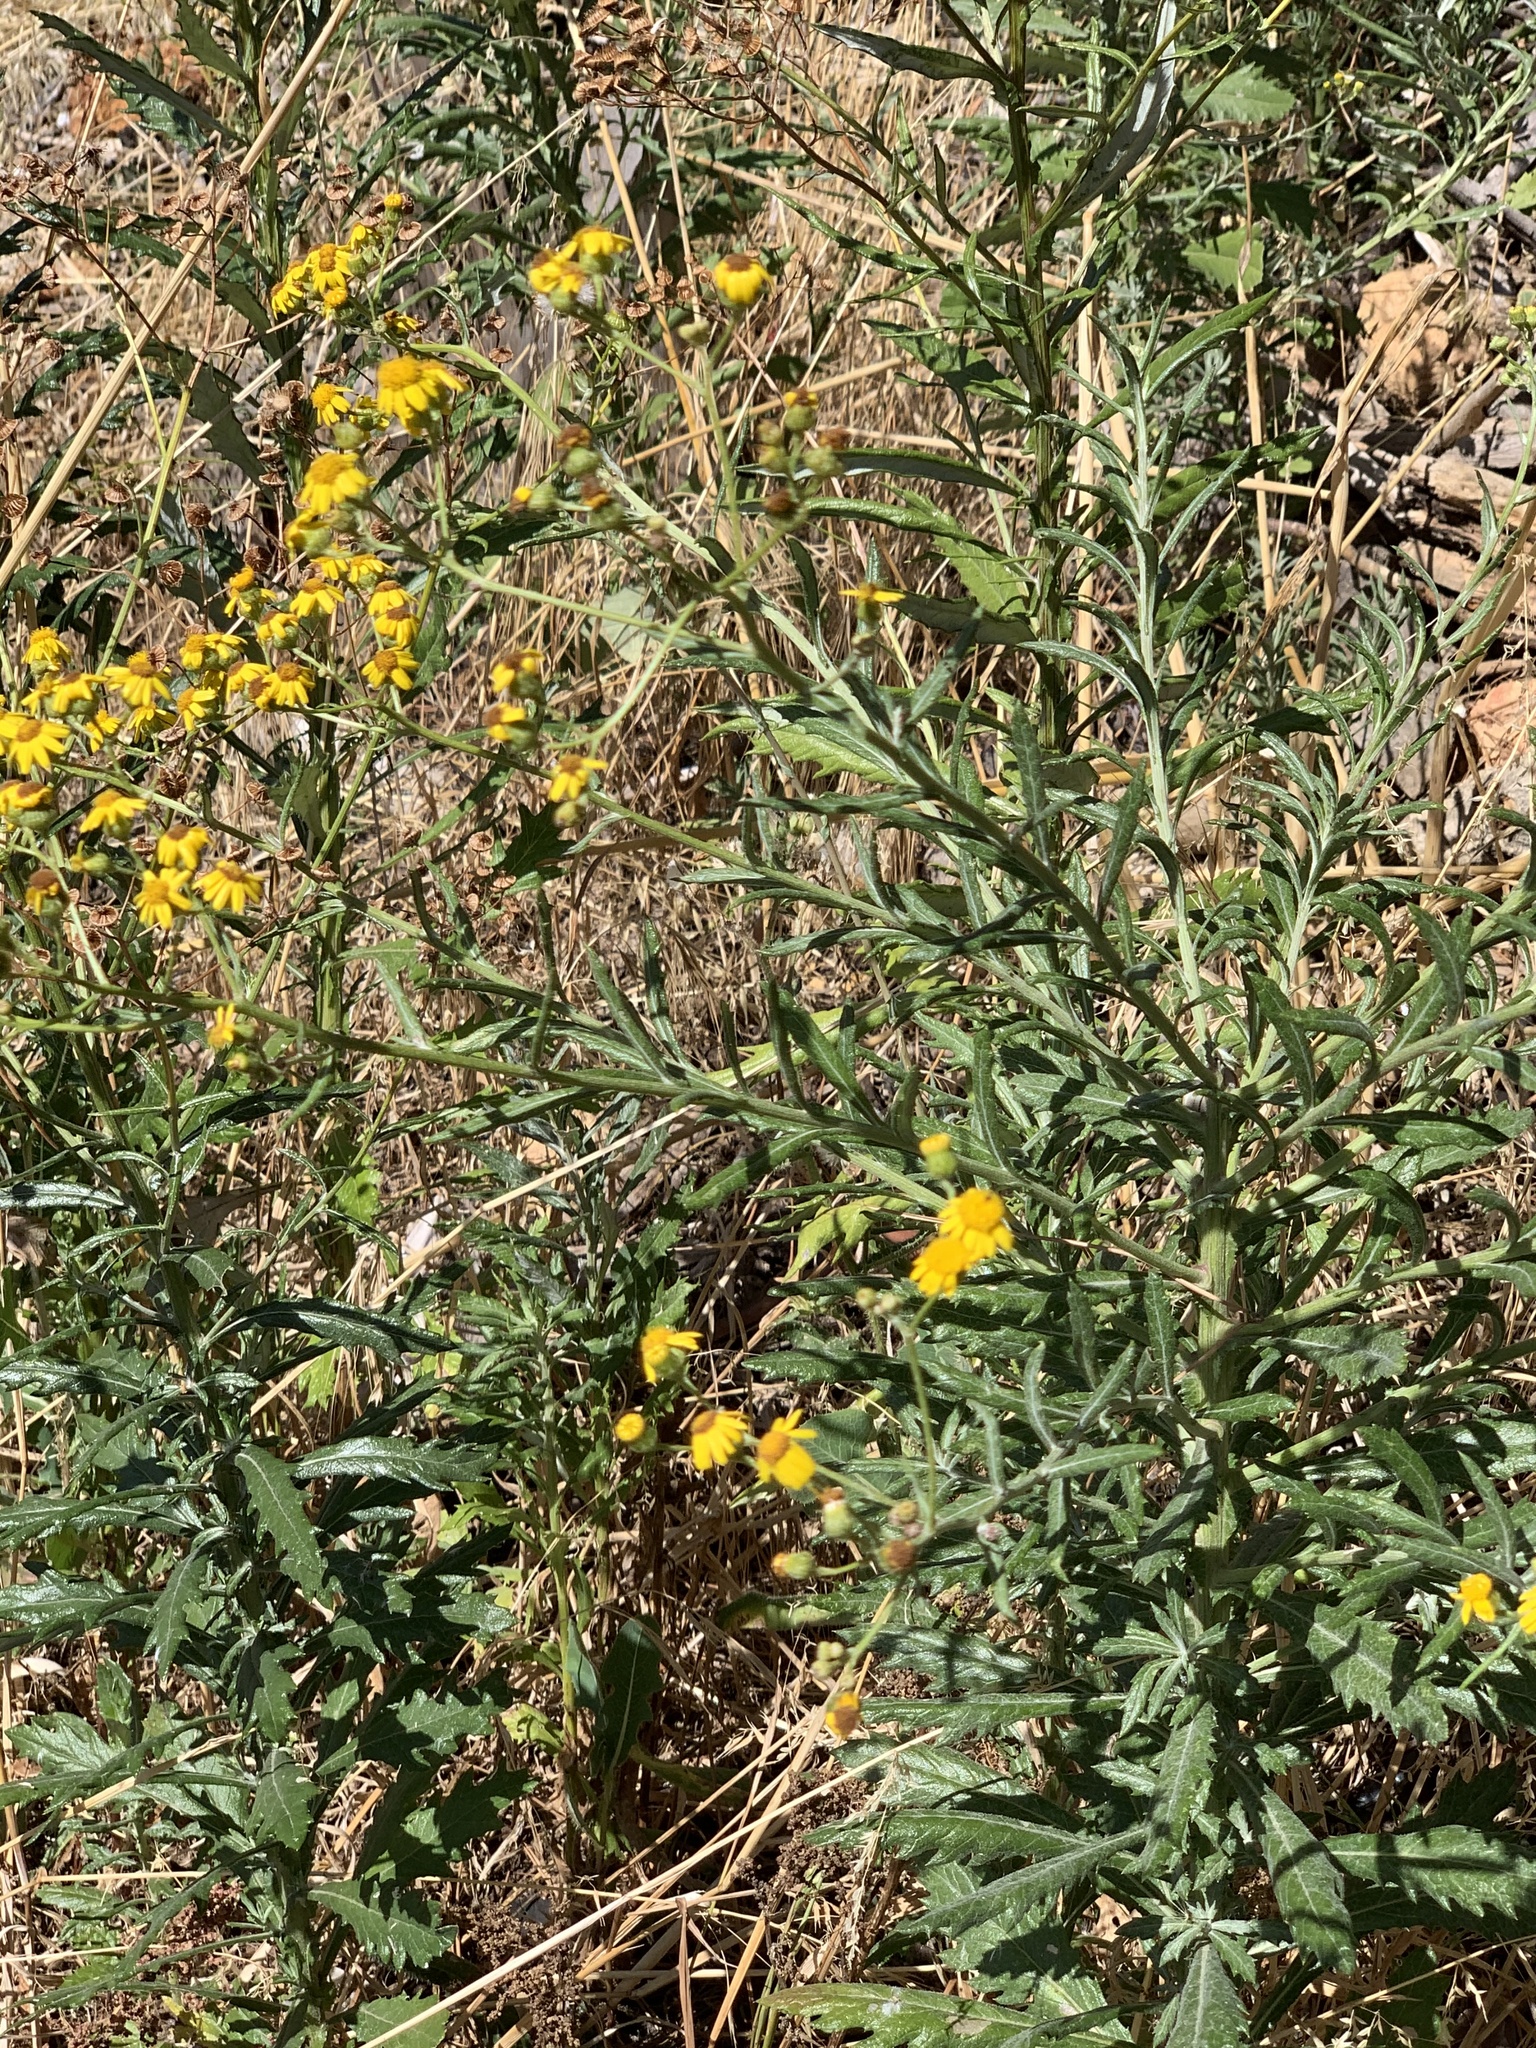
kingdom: Plantae
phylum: Tracheophyta
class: Magnoliopsida
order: Asterales
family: Asteraceae
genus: Senecio
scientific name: Senecio pterophorus
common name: Shoddy ragwort
